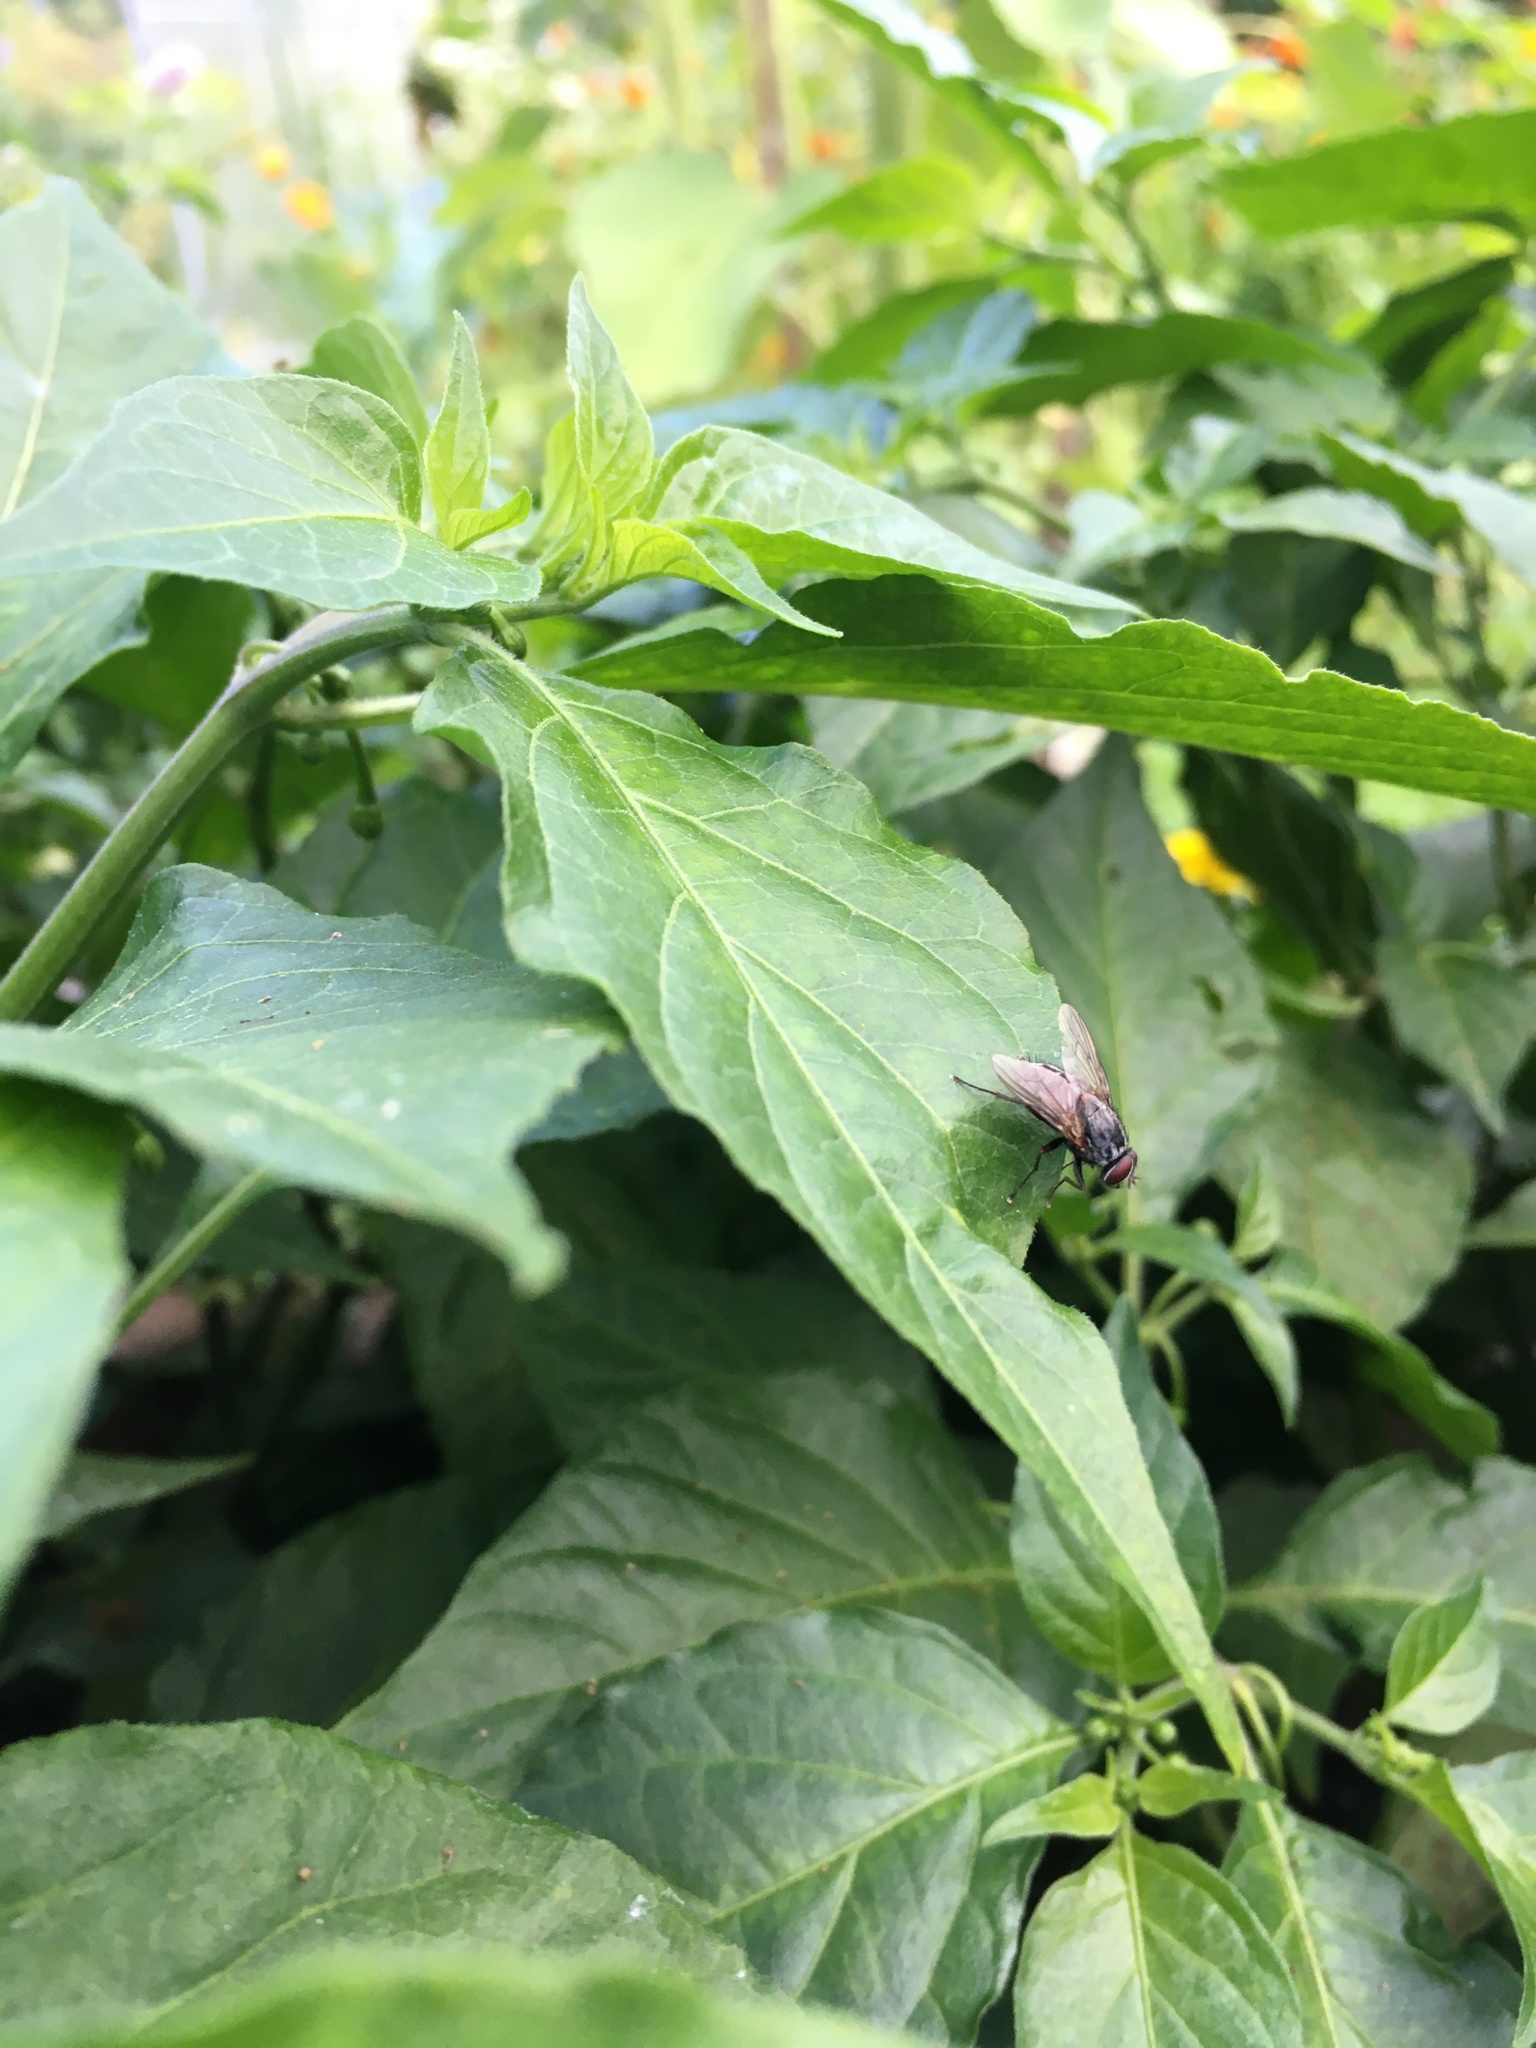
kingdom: Animalia
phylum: Arthropoda
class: Insecta
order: Diptera
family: Muscidae
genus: Muscina
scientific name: Muscina stabulans
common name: False stable fly
